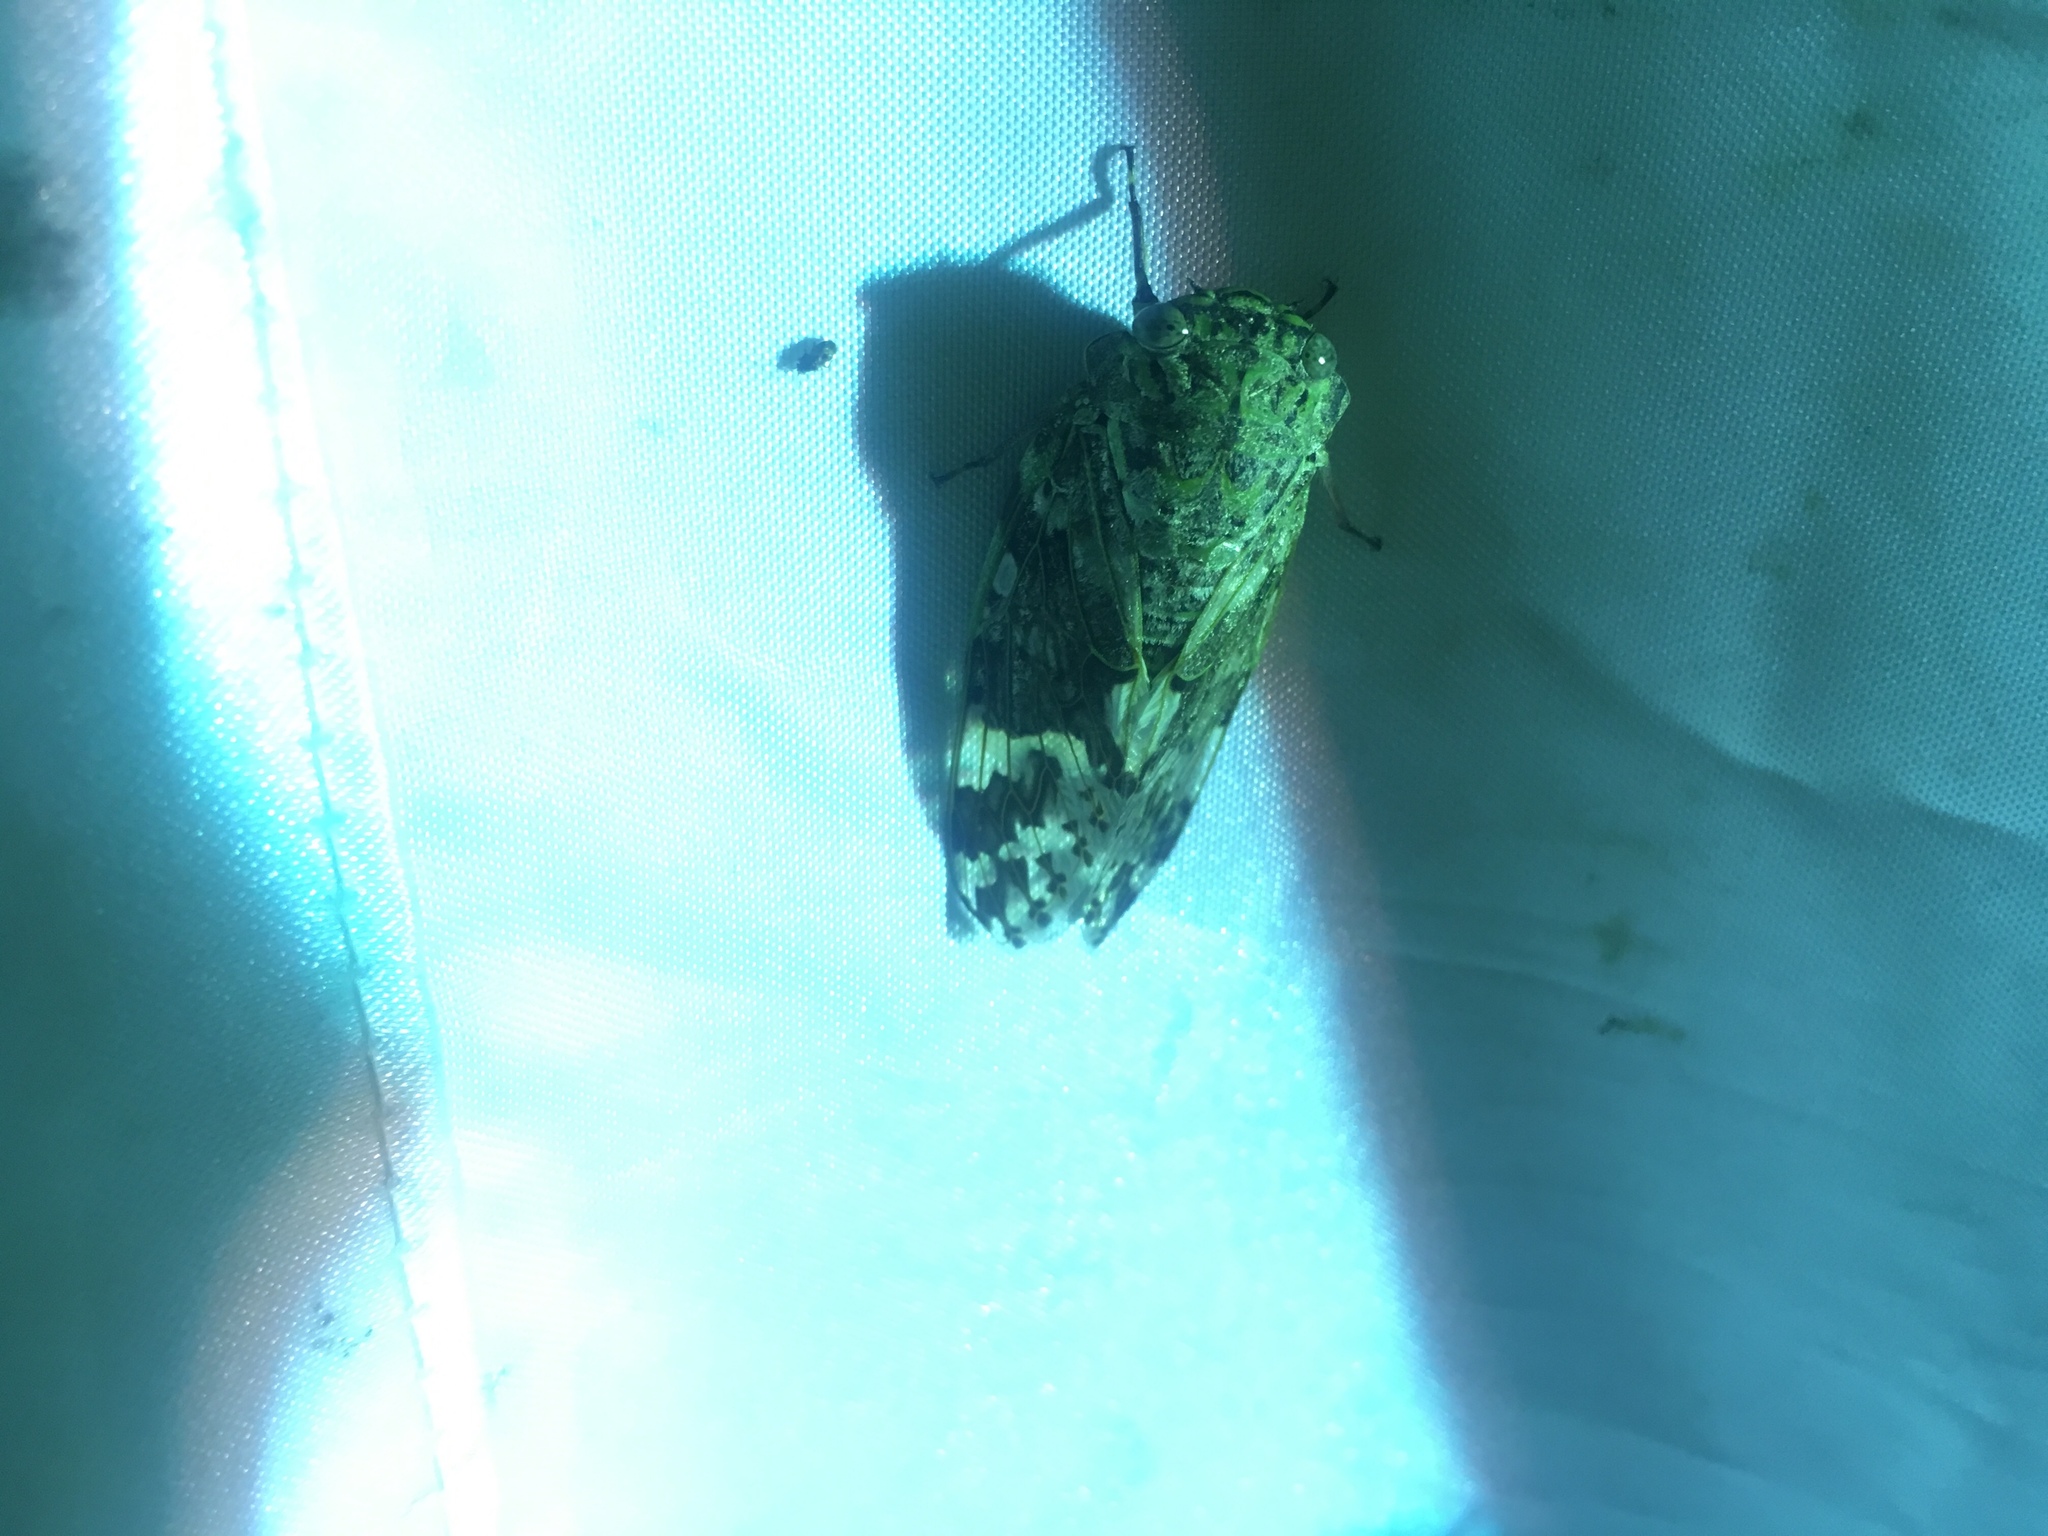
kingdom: Animalia
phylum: Arthropoda
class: Insecta
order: Hemiptera
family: Cicadidae
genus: Platypleura
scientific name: Platypleura takasagona
